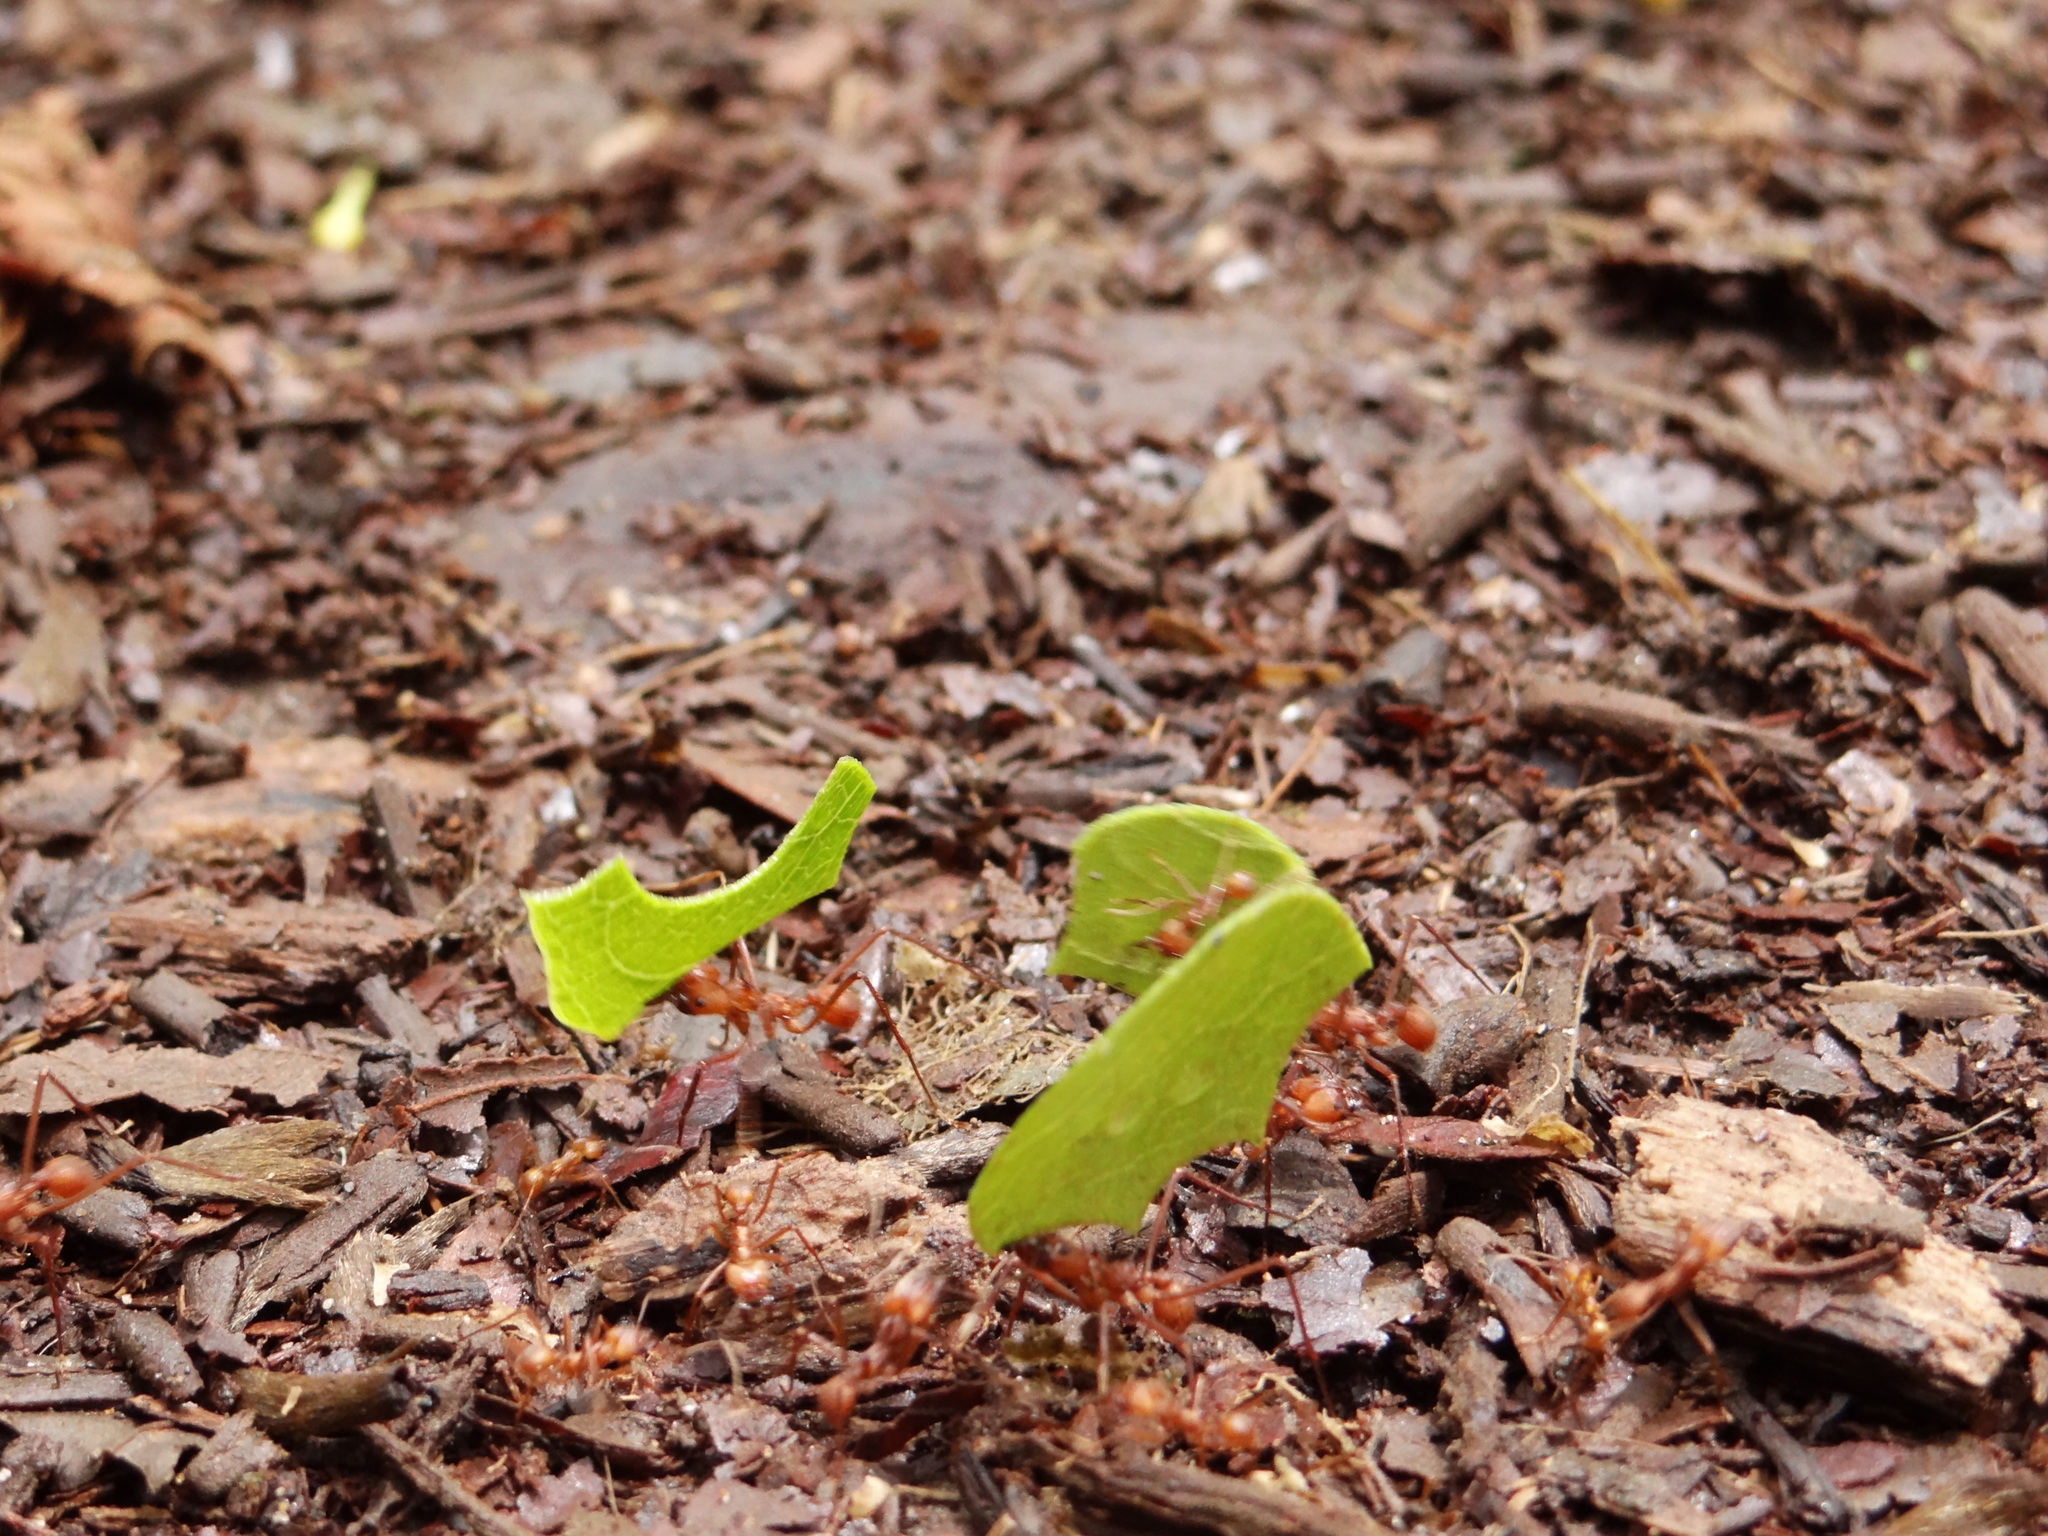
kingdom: Animalia
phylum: Arthropoda
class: Insecta
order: Hymenoptera
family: Formicidae
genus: Atta
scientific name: Atta cephalotes
